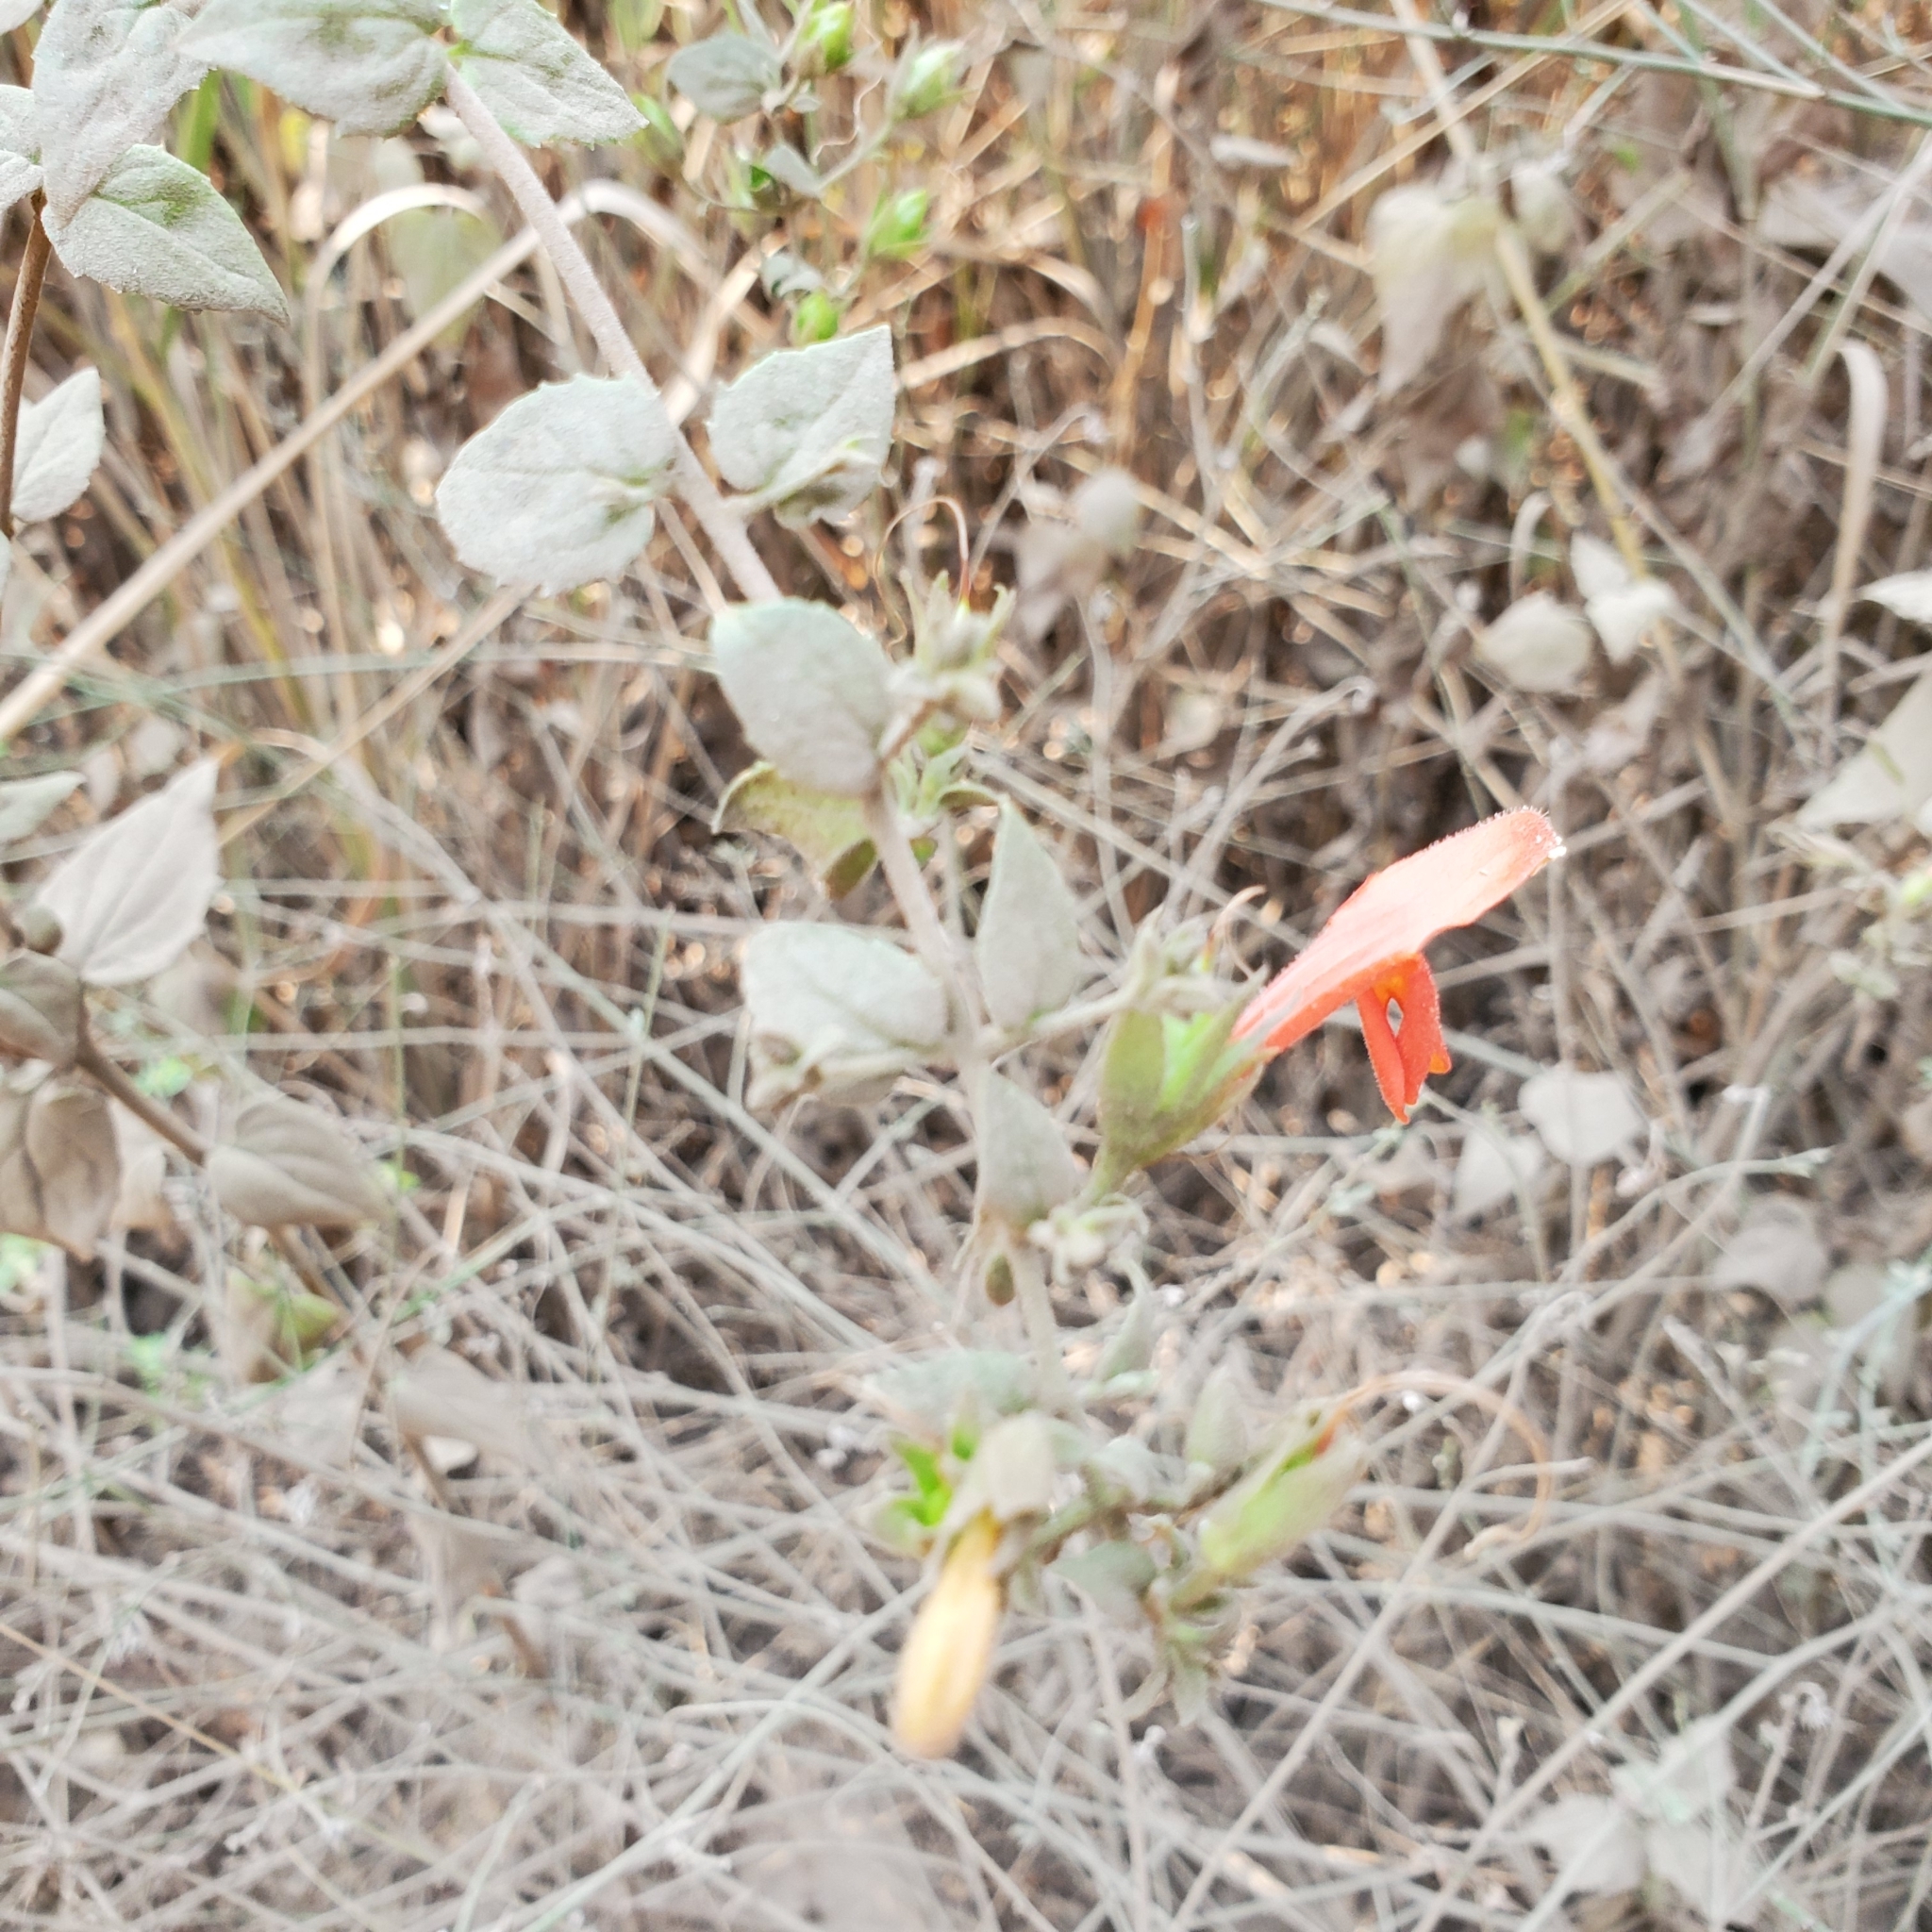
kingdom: Plantae
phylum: Tracheophyta
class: Magnoliopsida
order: Lamiales
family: Plantaginaceae
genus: Keckiella
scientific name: Keckiella cordifolia
